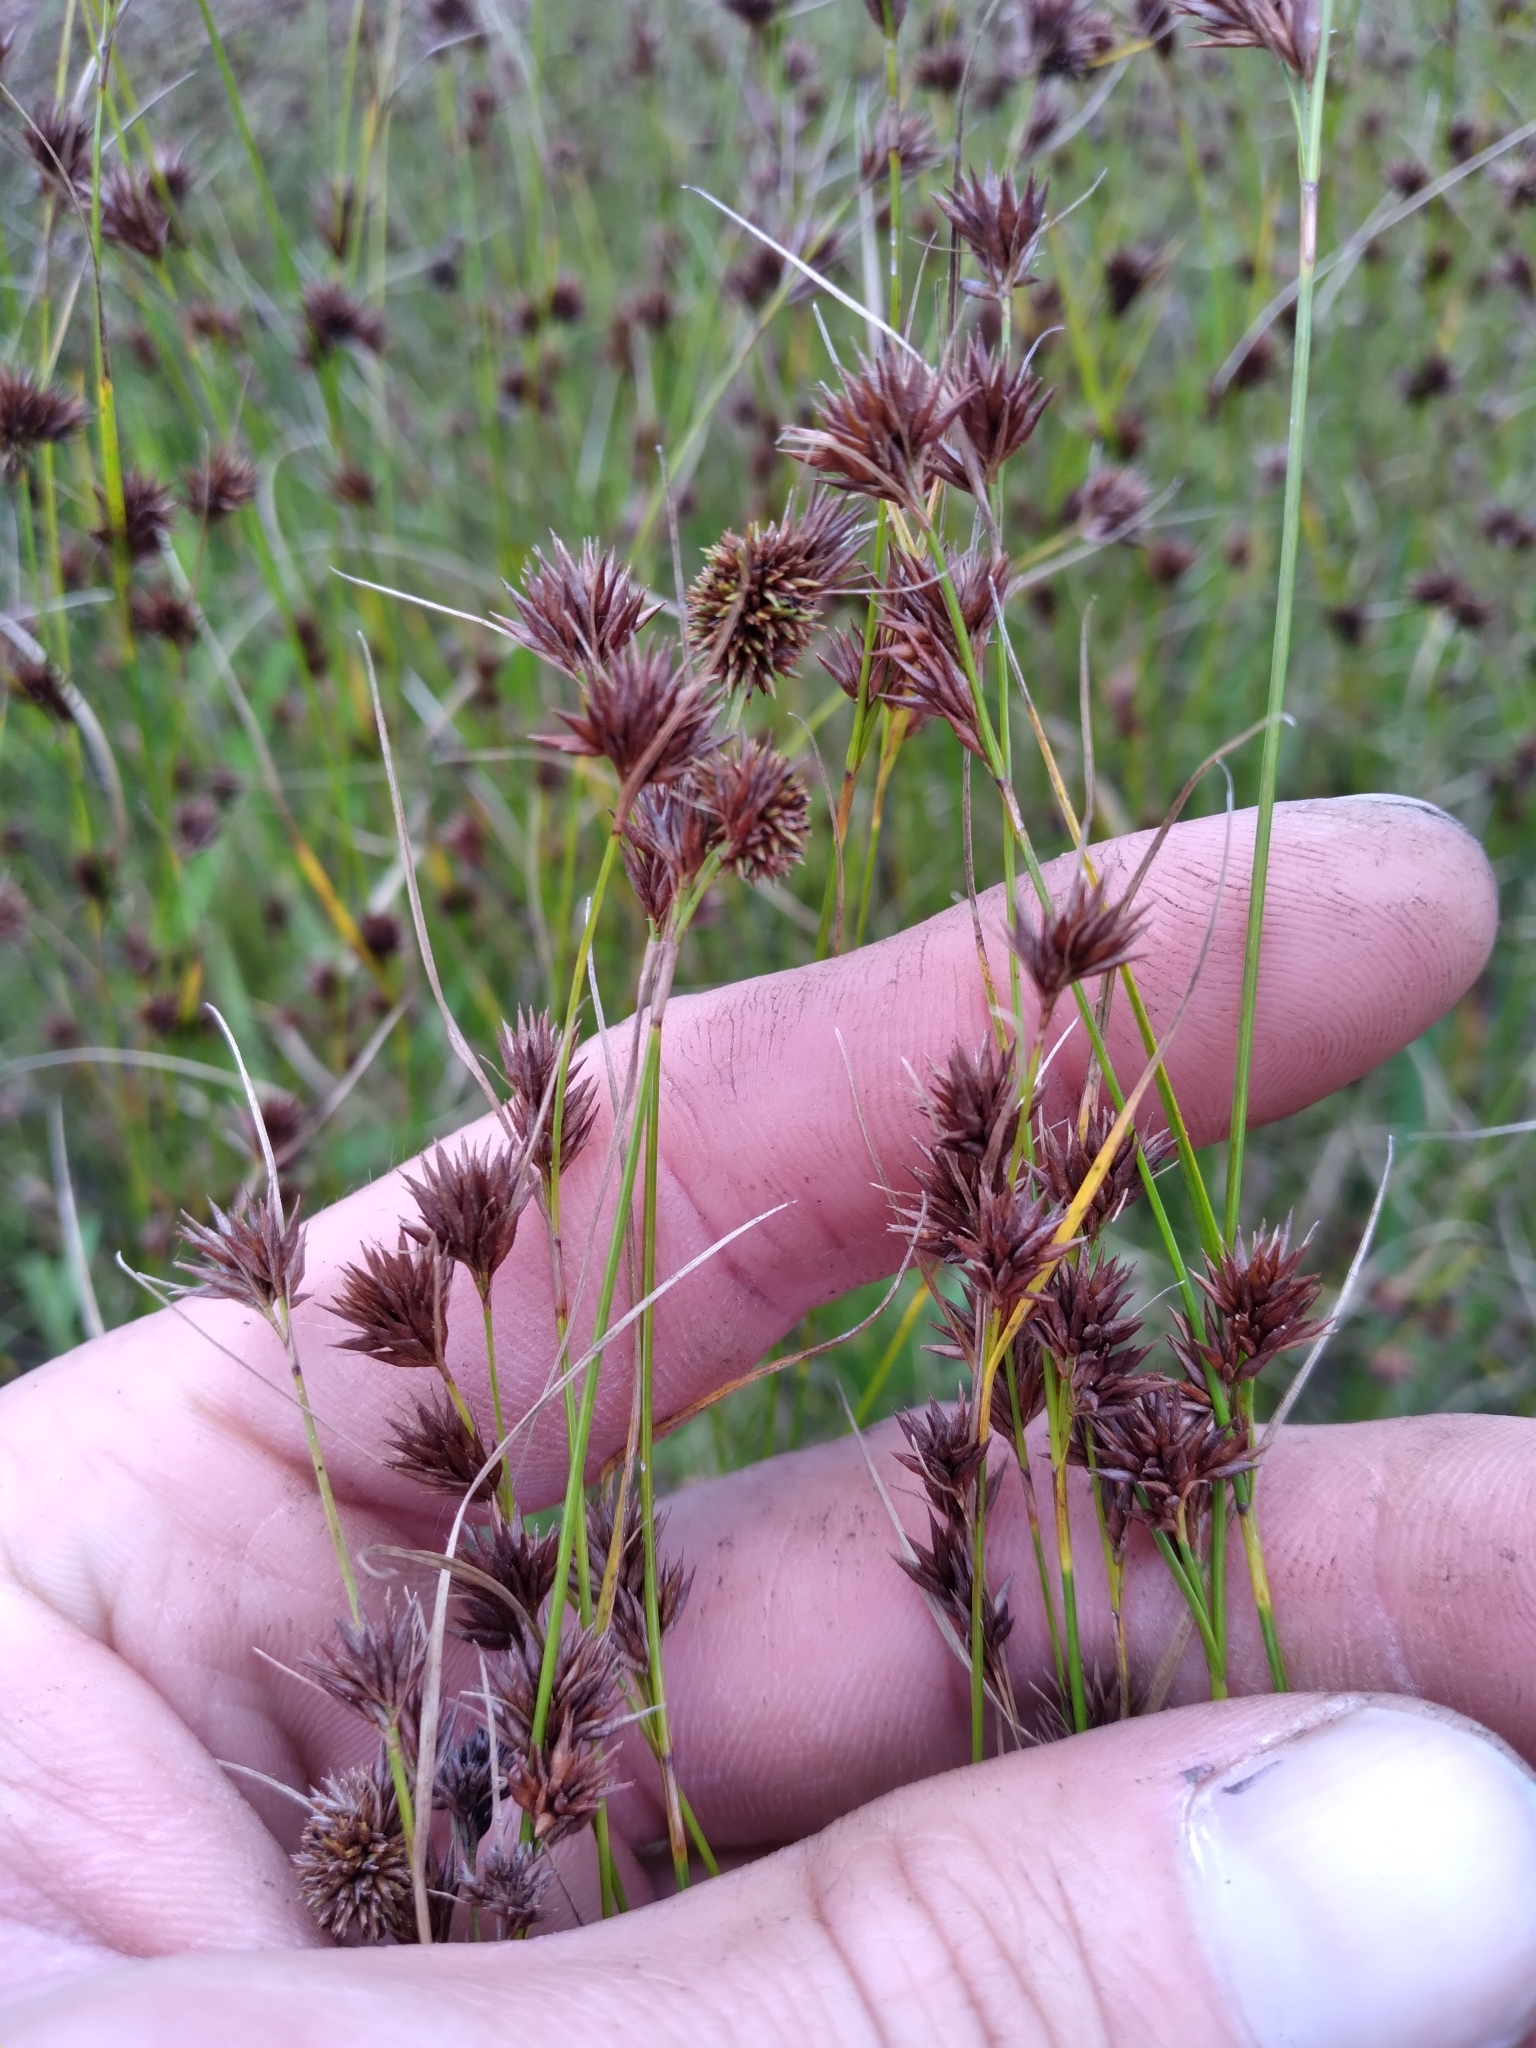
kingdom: Plantae
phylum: Tracheophyta
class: Liliopsida
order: Poales
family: Cyperaceae
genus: Rhynchospora
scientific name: Rhynchospora chalarocephala
